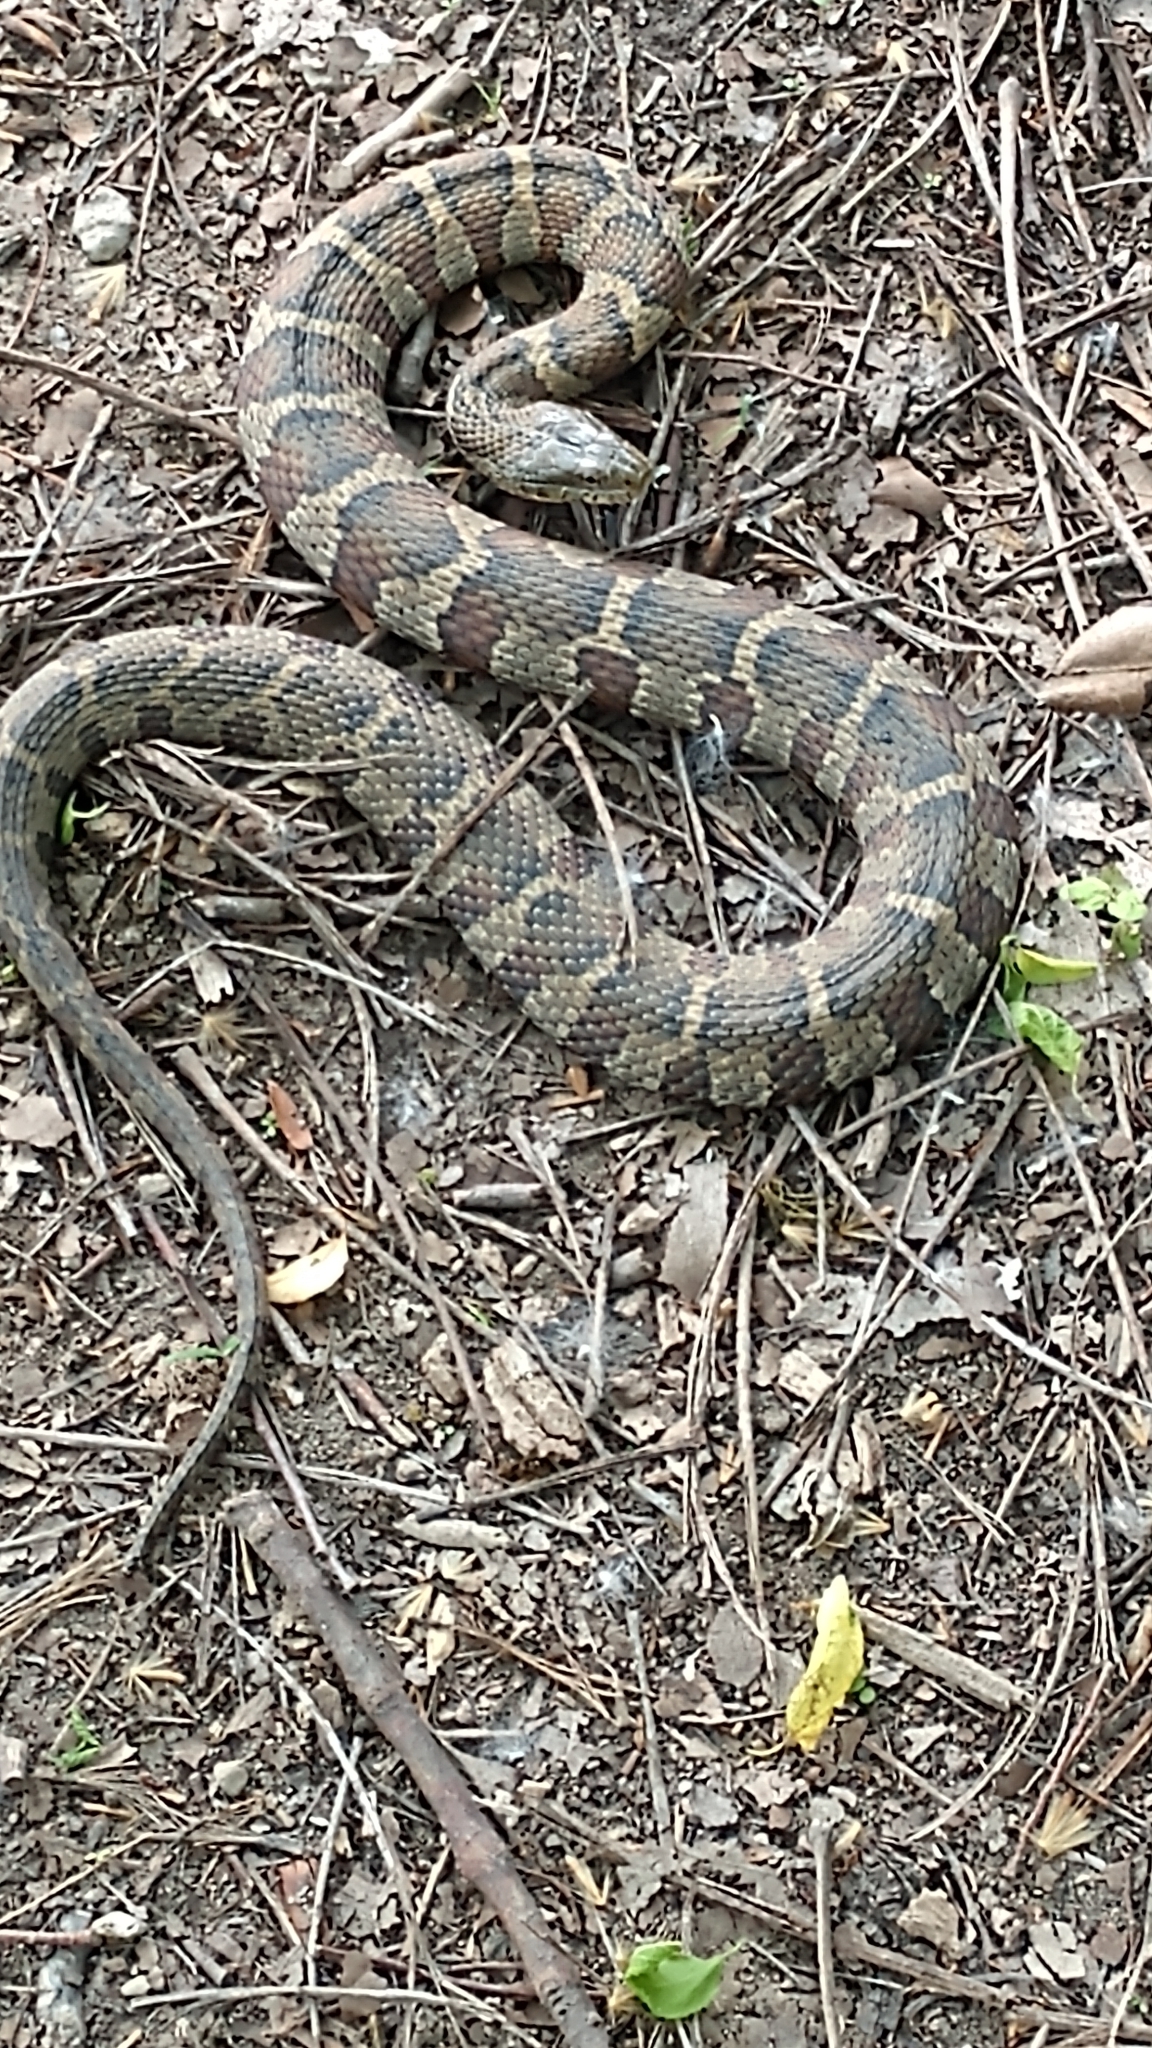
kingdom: Animalia
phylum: Chordata
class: Squamata
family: Colubridae
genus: Nerodia
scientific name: Nerodia sipedon
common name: Northern water snake
